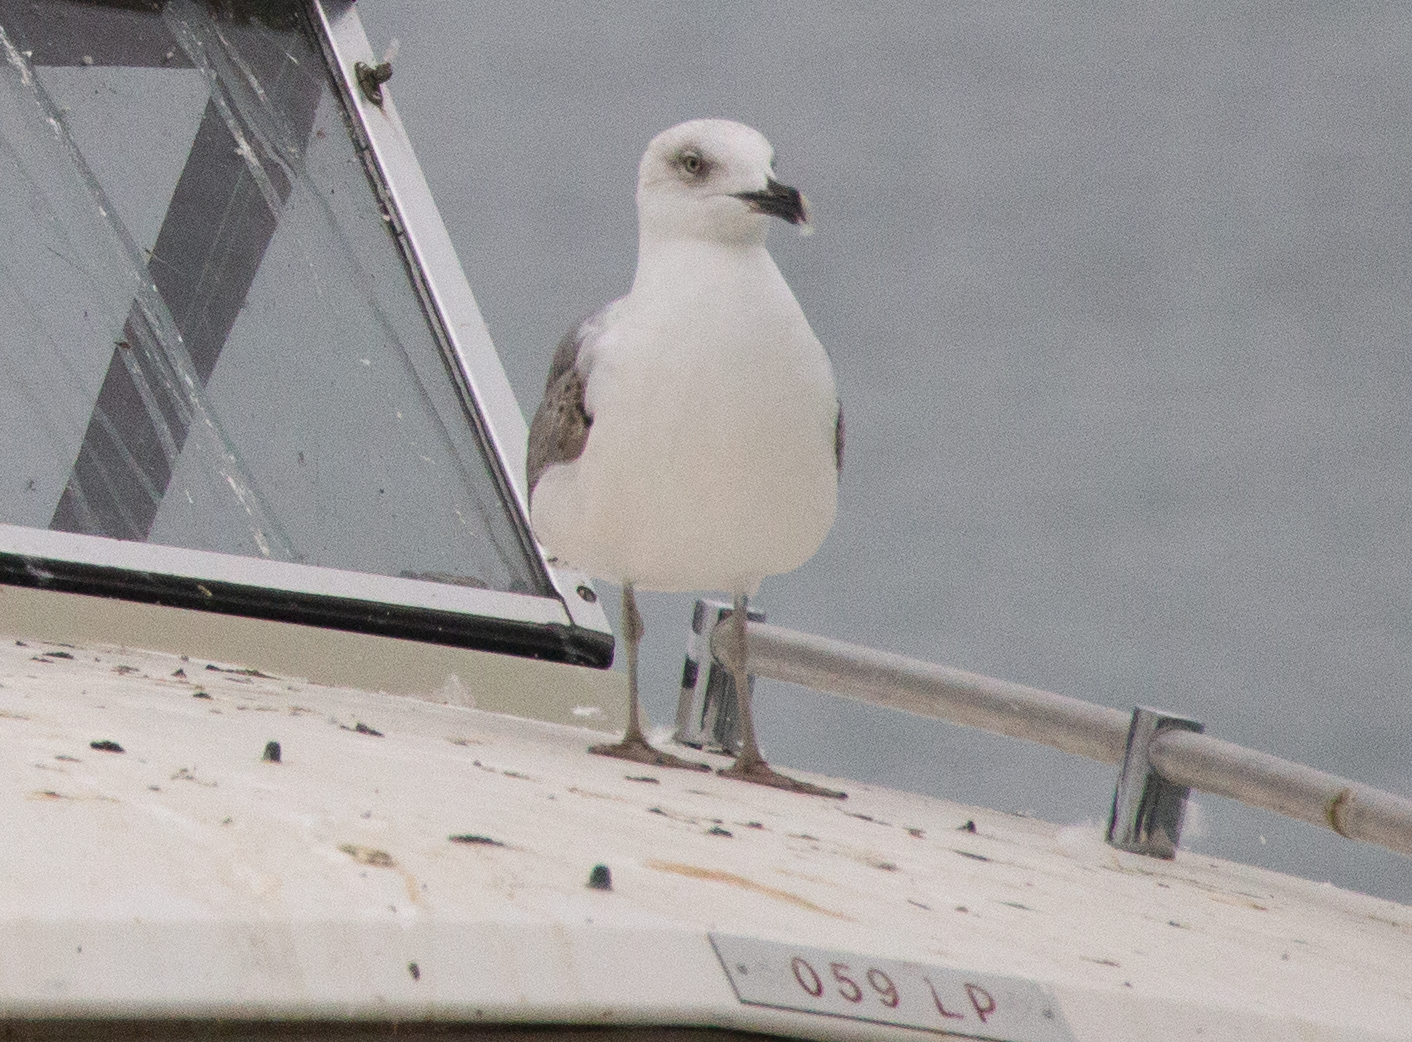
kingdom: Animalia
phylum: Chordata
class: Aves
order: Charadriiformes
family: Laridae
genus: Larus
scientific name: Larus michahellis
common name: Yellow-legged gull
